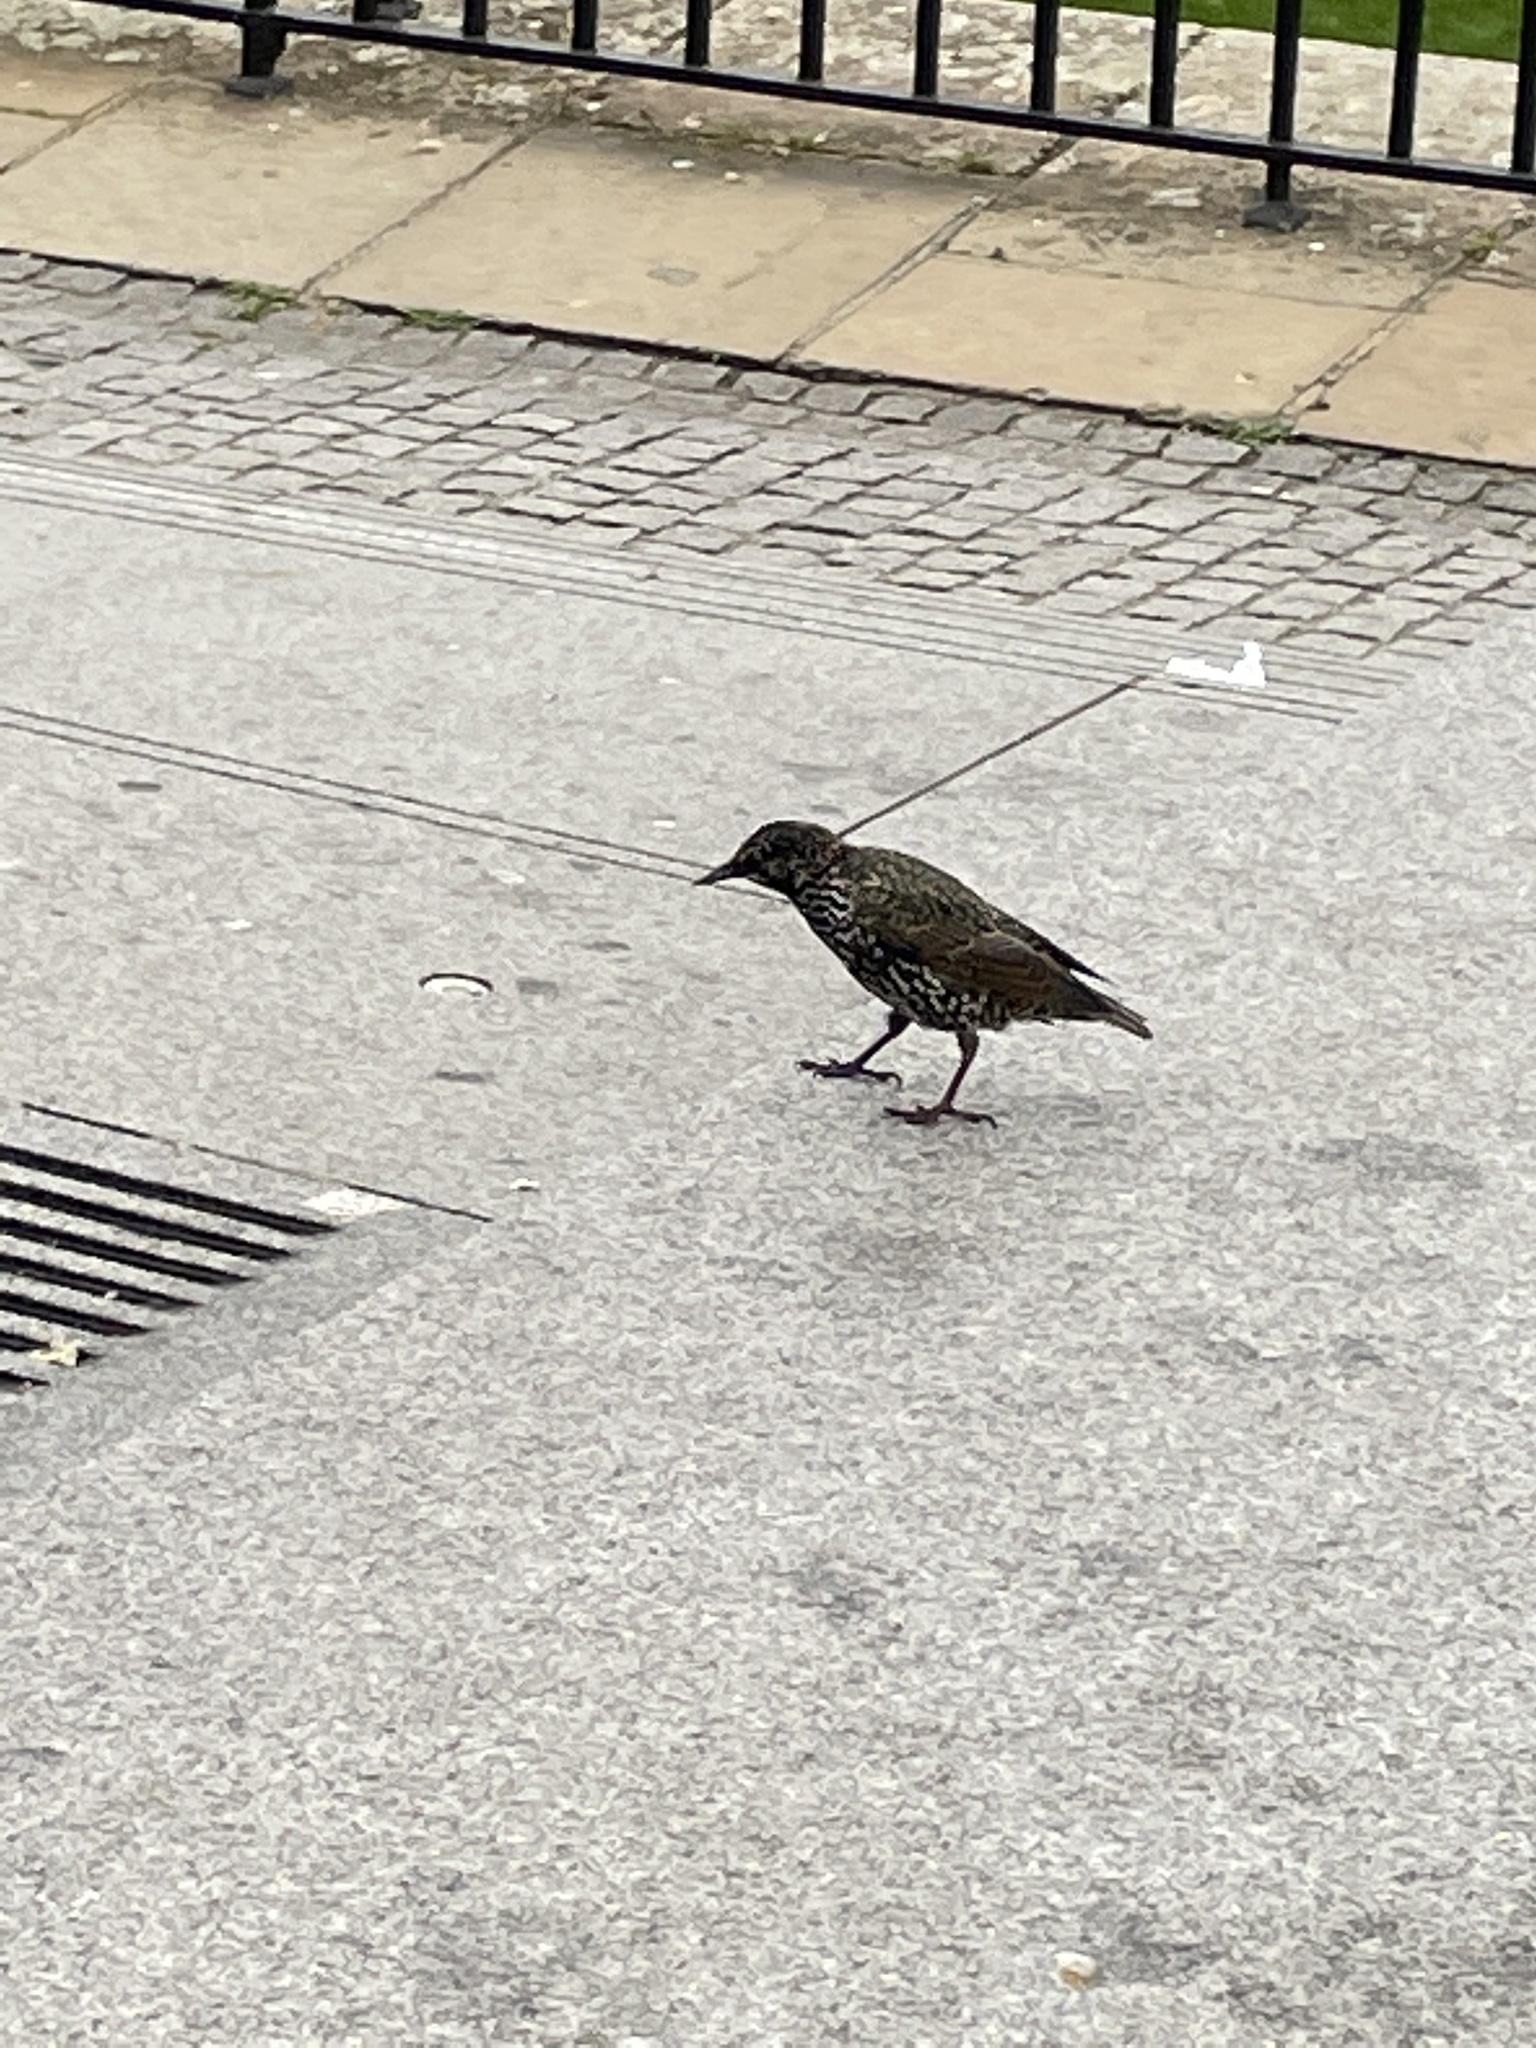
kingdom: Animalia
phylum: Chordata
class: Aves
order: Passeriformes
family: Sturnidae
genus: Sturnus
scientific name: Sturnus vulgaris
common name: Common starling
